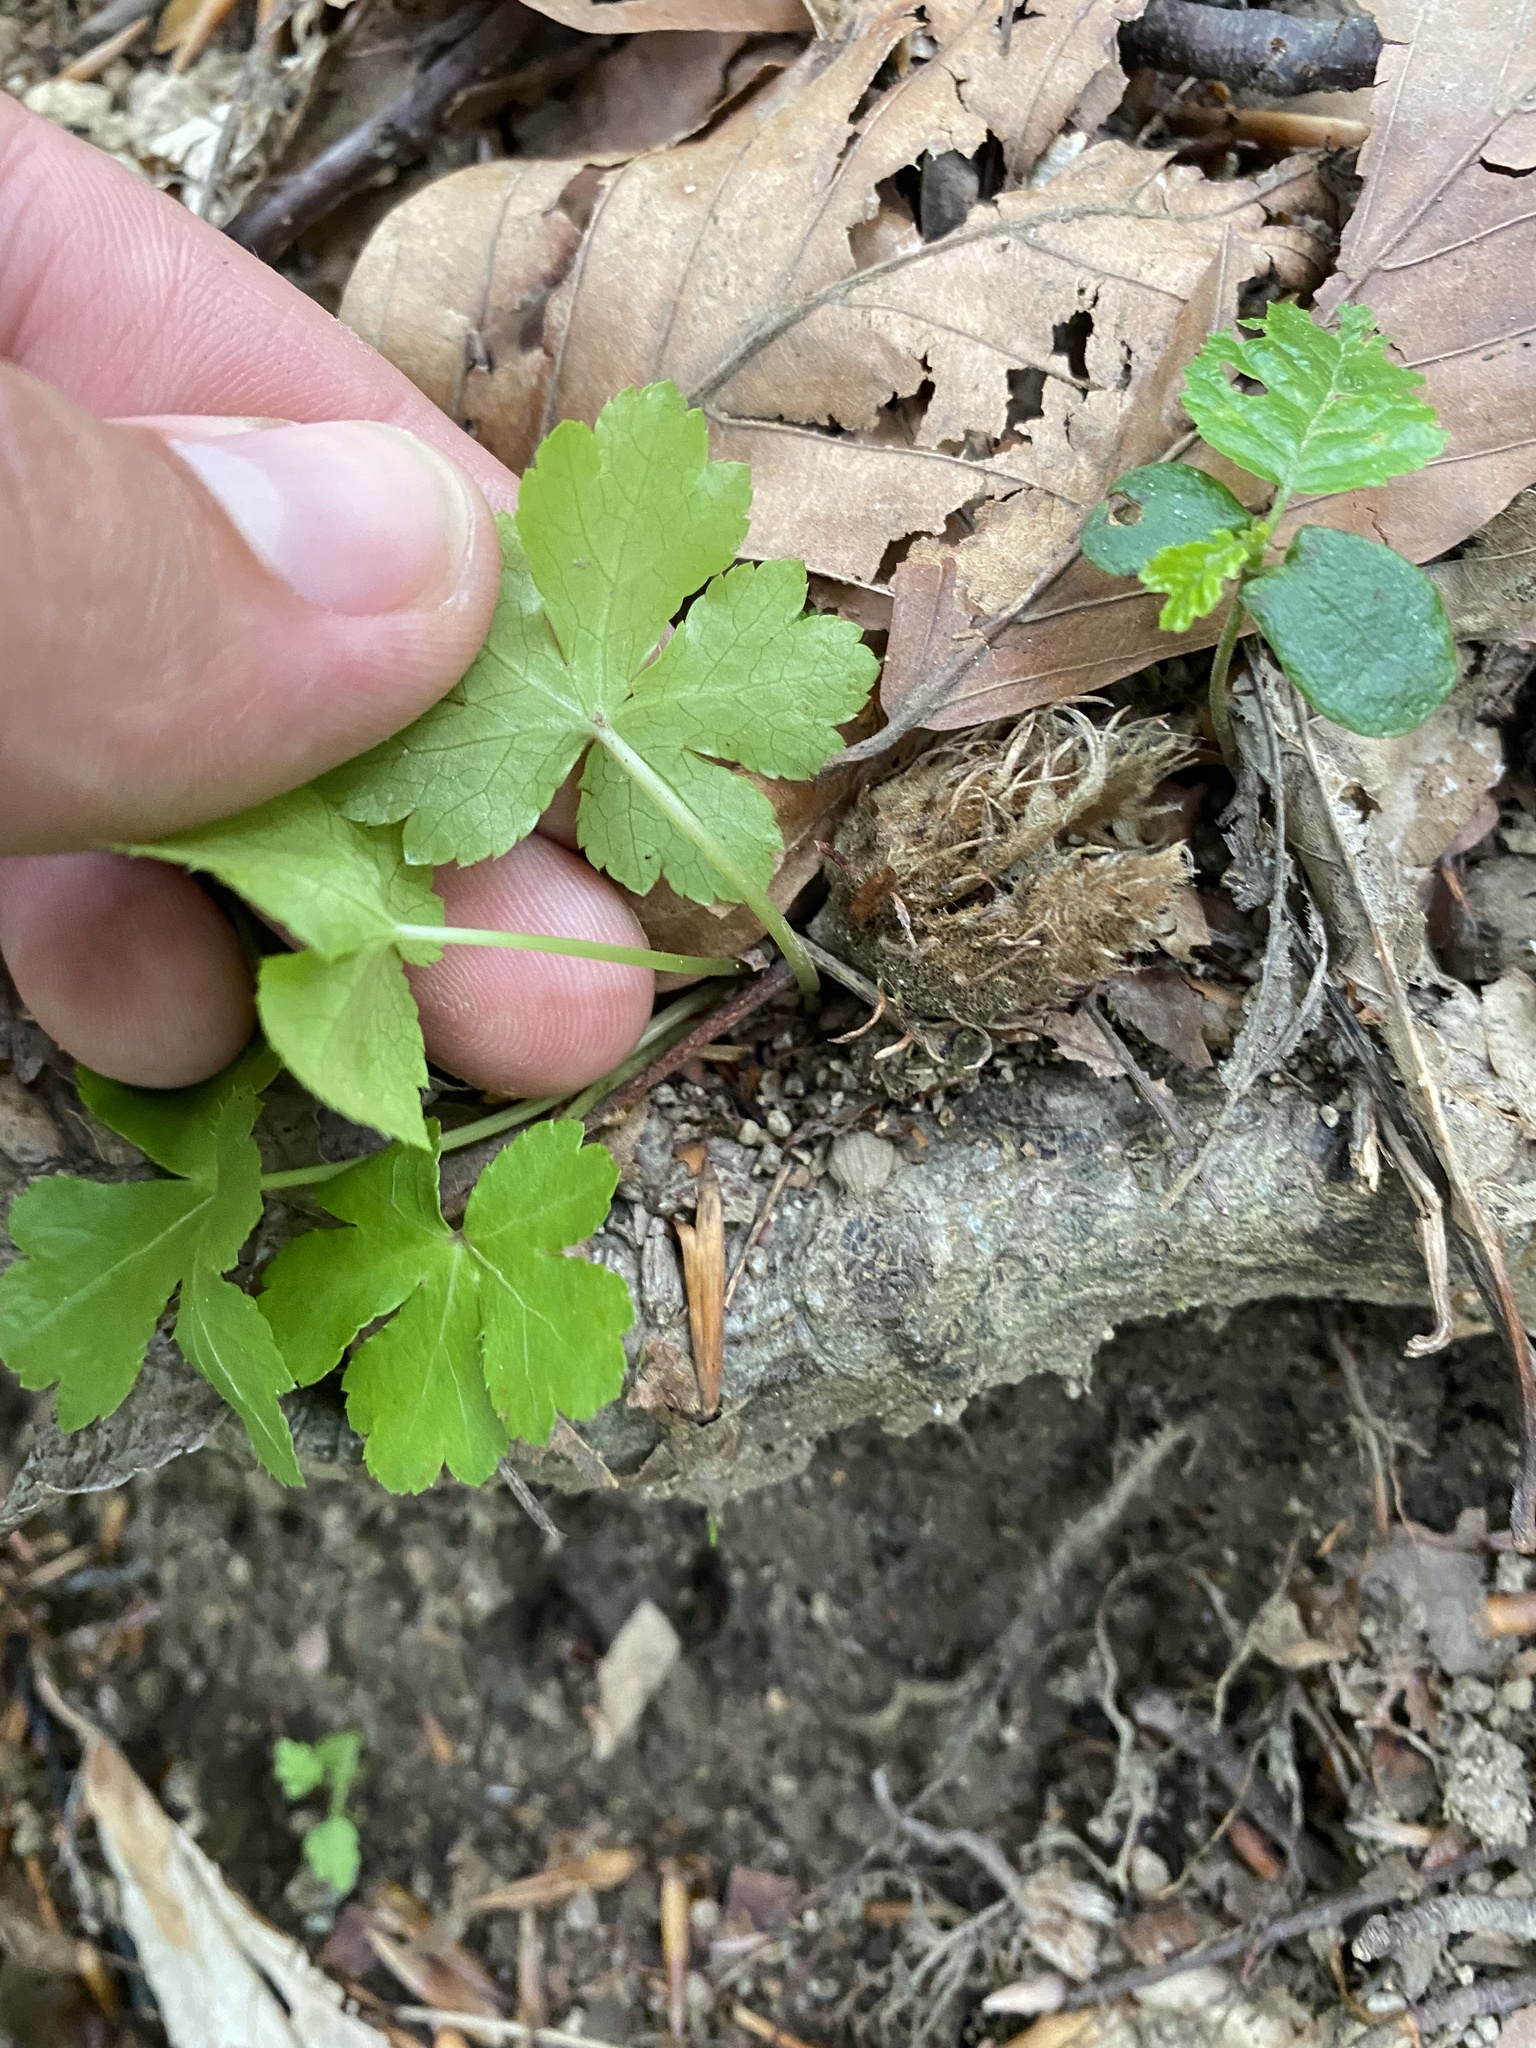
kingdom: Plantae
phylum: Tracheophyta
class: Magnoliopsida
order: Apiales
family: Apiaceae
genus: Sanicula
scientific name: Sanicula europaea
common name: Sanicle
